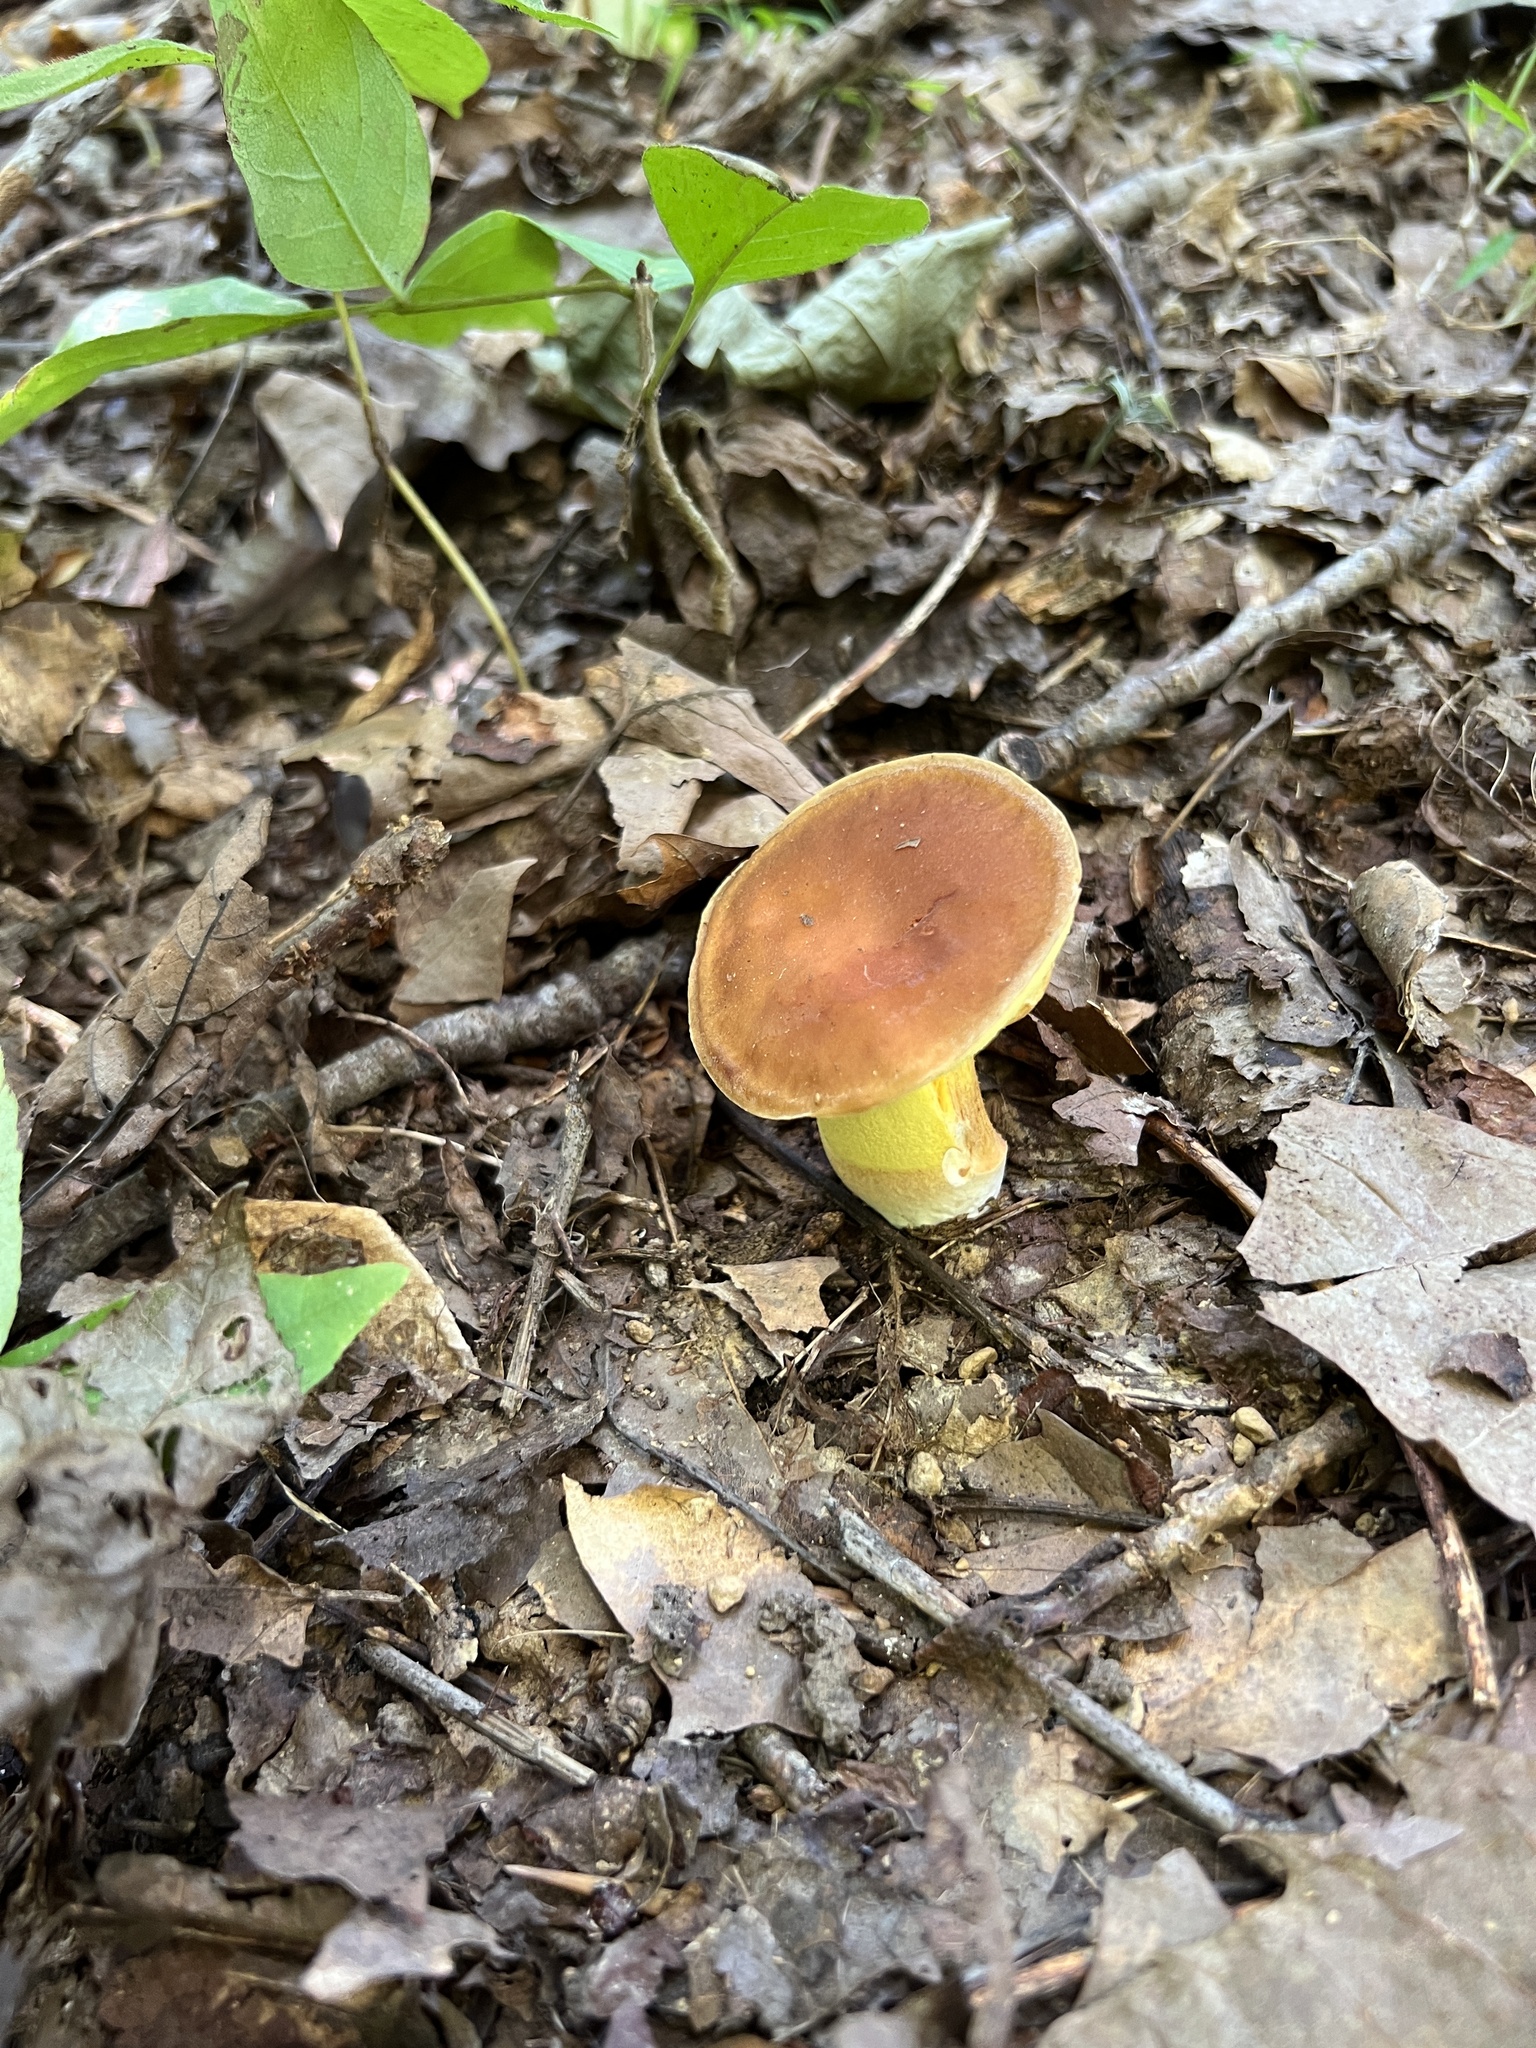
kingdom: Fungi
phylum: Basidiomycota
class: Agaricomycetes
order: Boletales
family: Boletaceae
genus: Hemileccinum
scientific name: Hemileccinum subglabripes
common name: Smoothish-stemmed bolete
